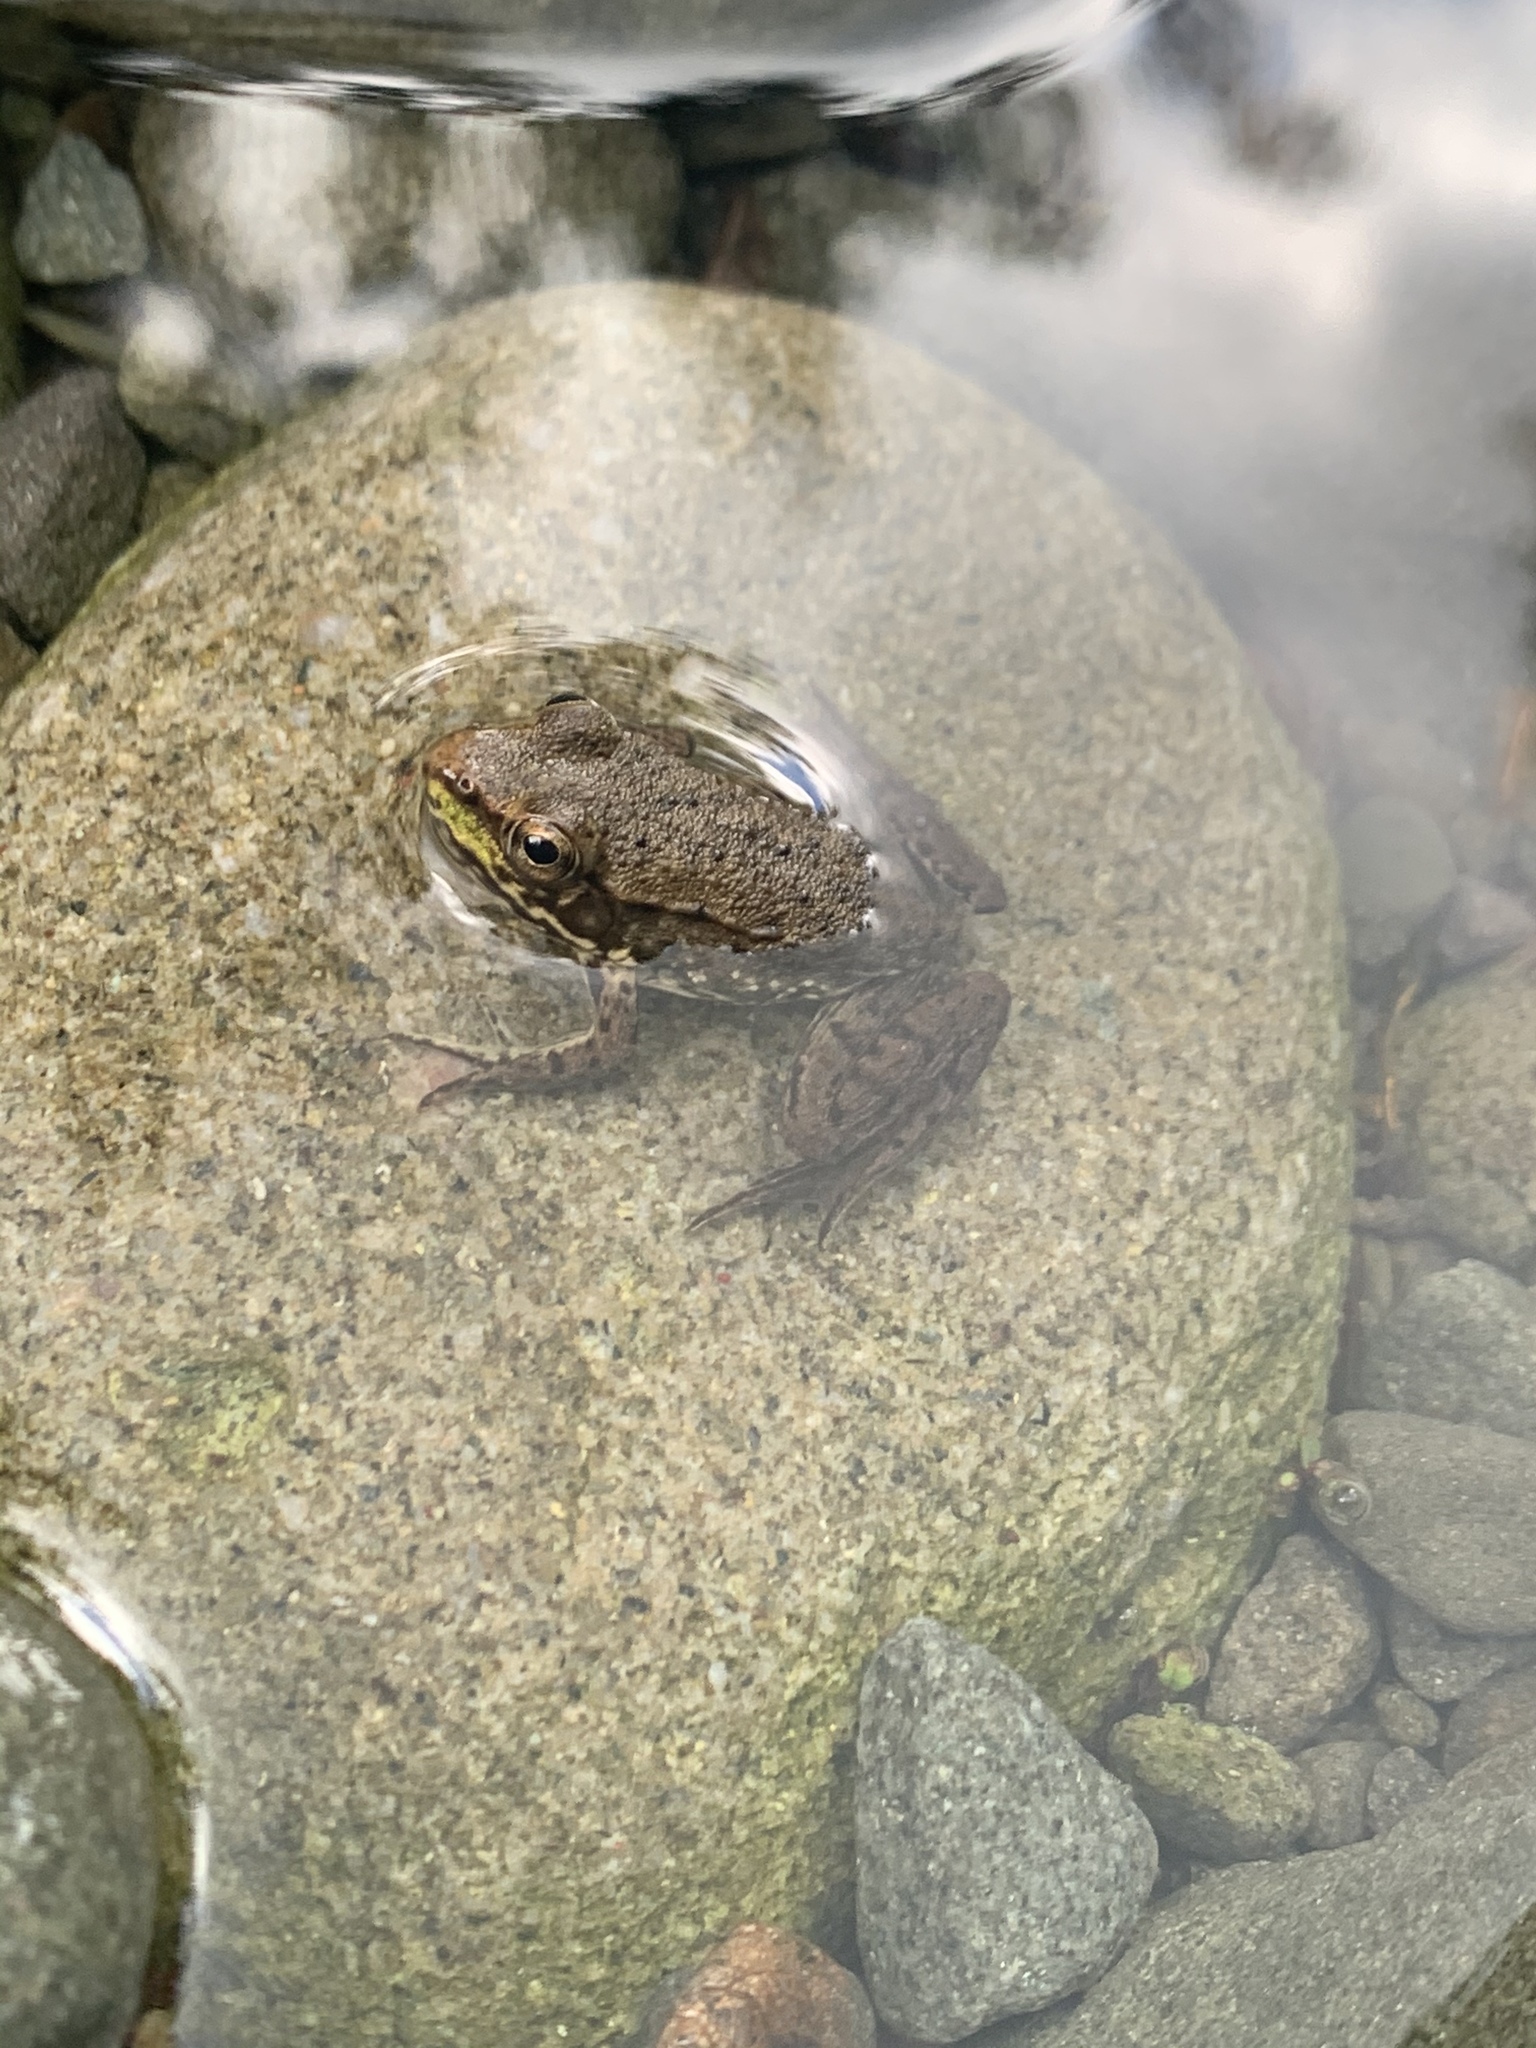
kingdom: Animalia
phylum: Chordata
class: Amphibia
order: Anura
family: Ranidae
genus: Lithobates
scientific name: Lithobates clamitans
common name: Green frog
